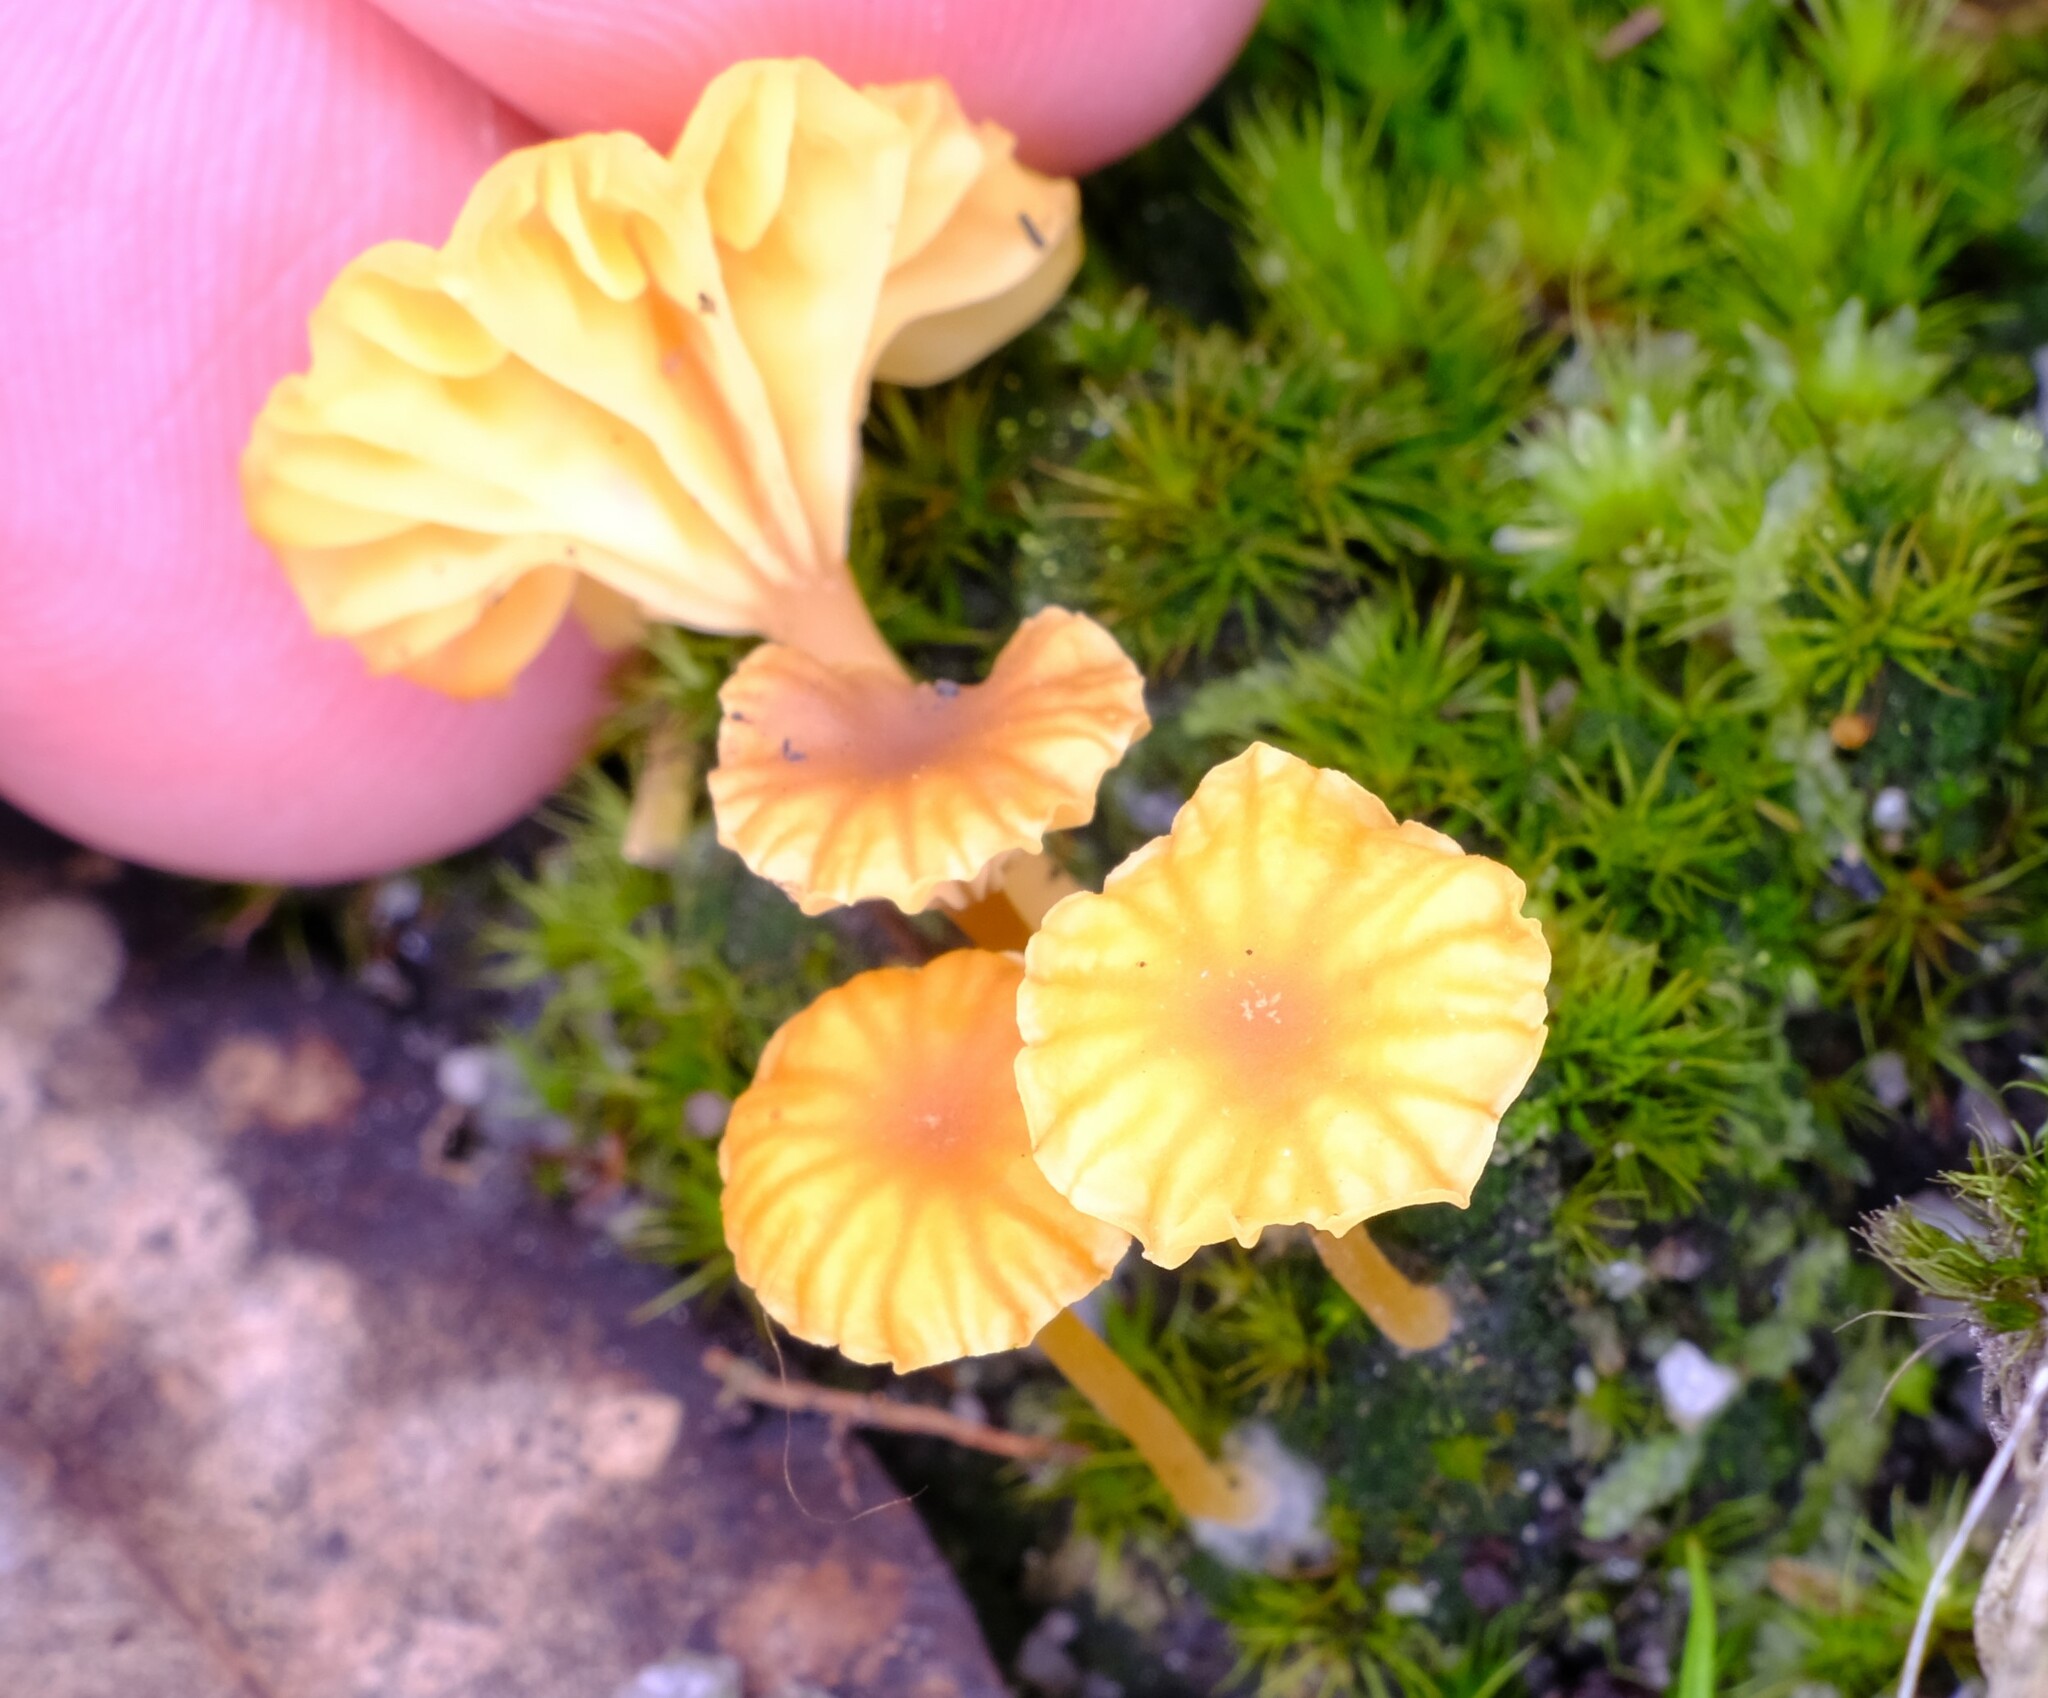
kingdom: Fungi
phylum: Basidiomycota
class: Agaricomycetes
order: Agaricales
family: Hygrophoraceae
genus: Lichenomphalia
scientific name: Lichenomphalia chromacea
